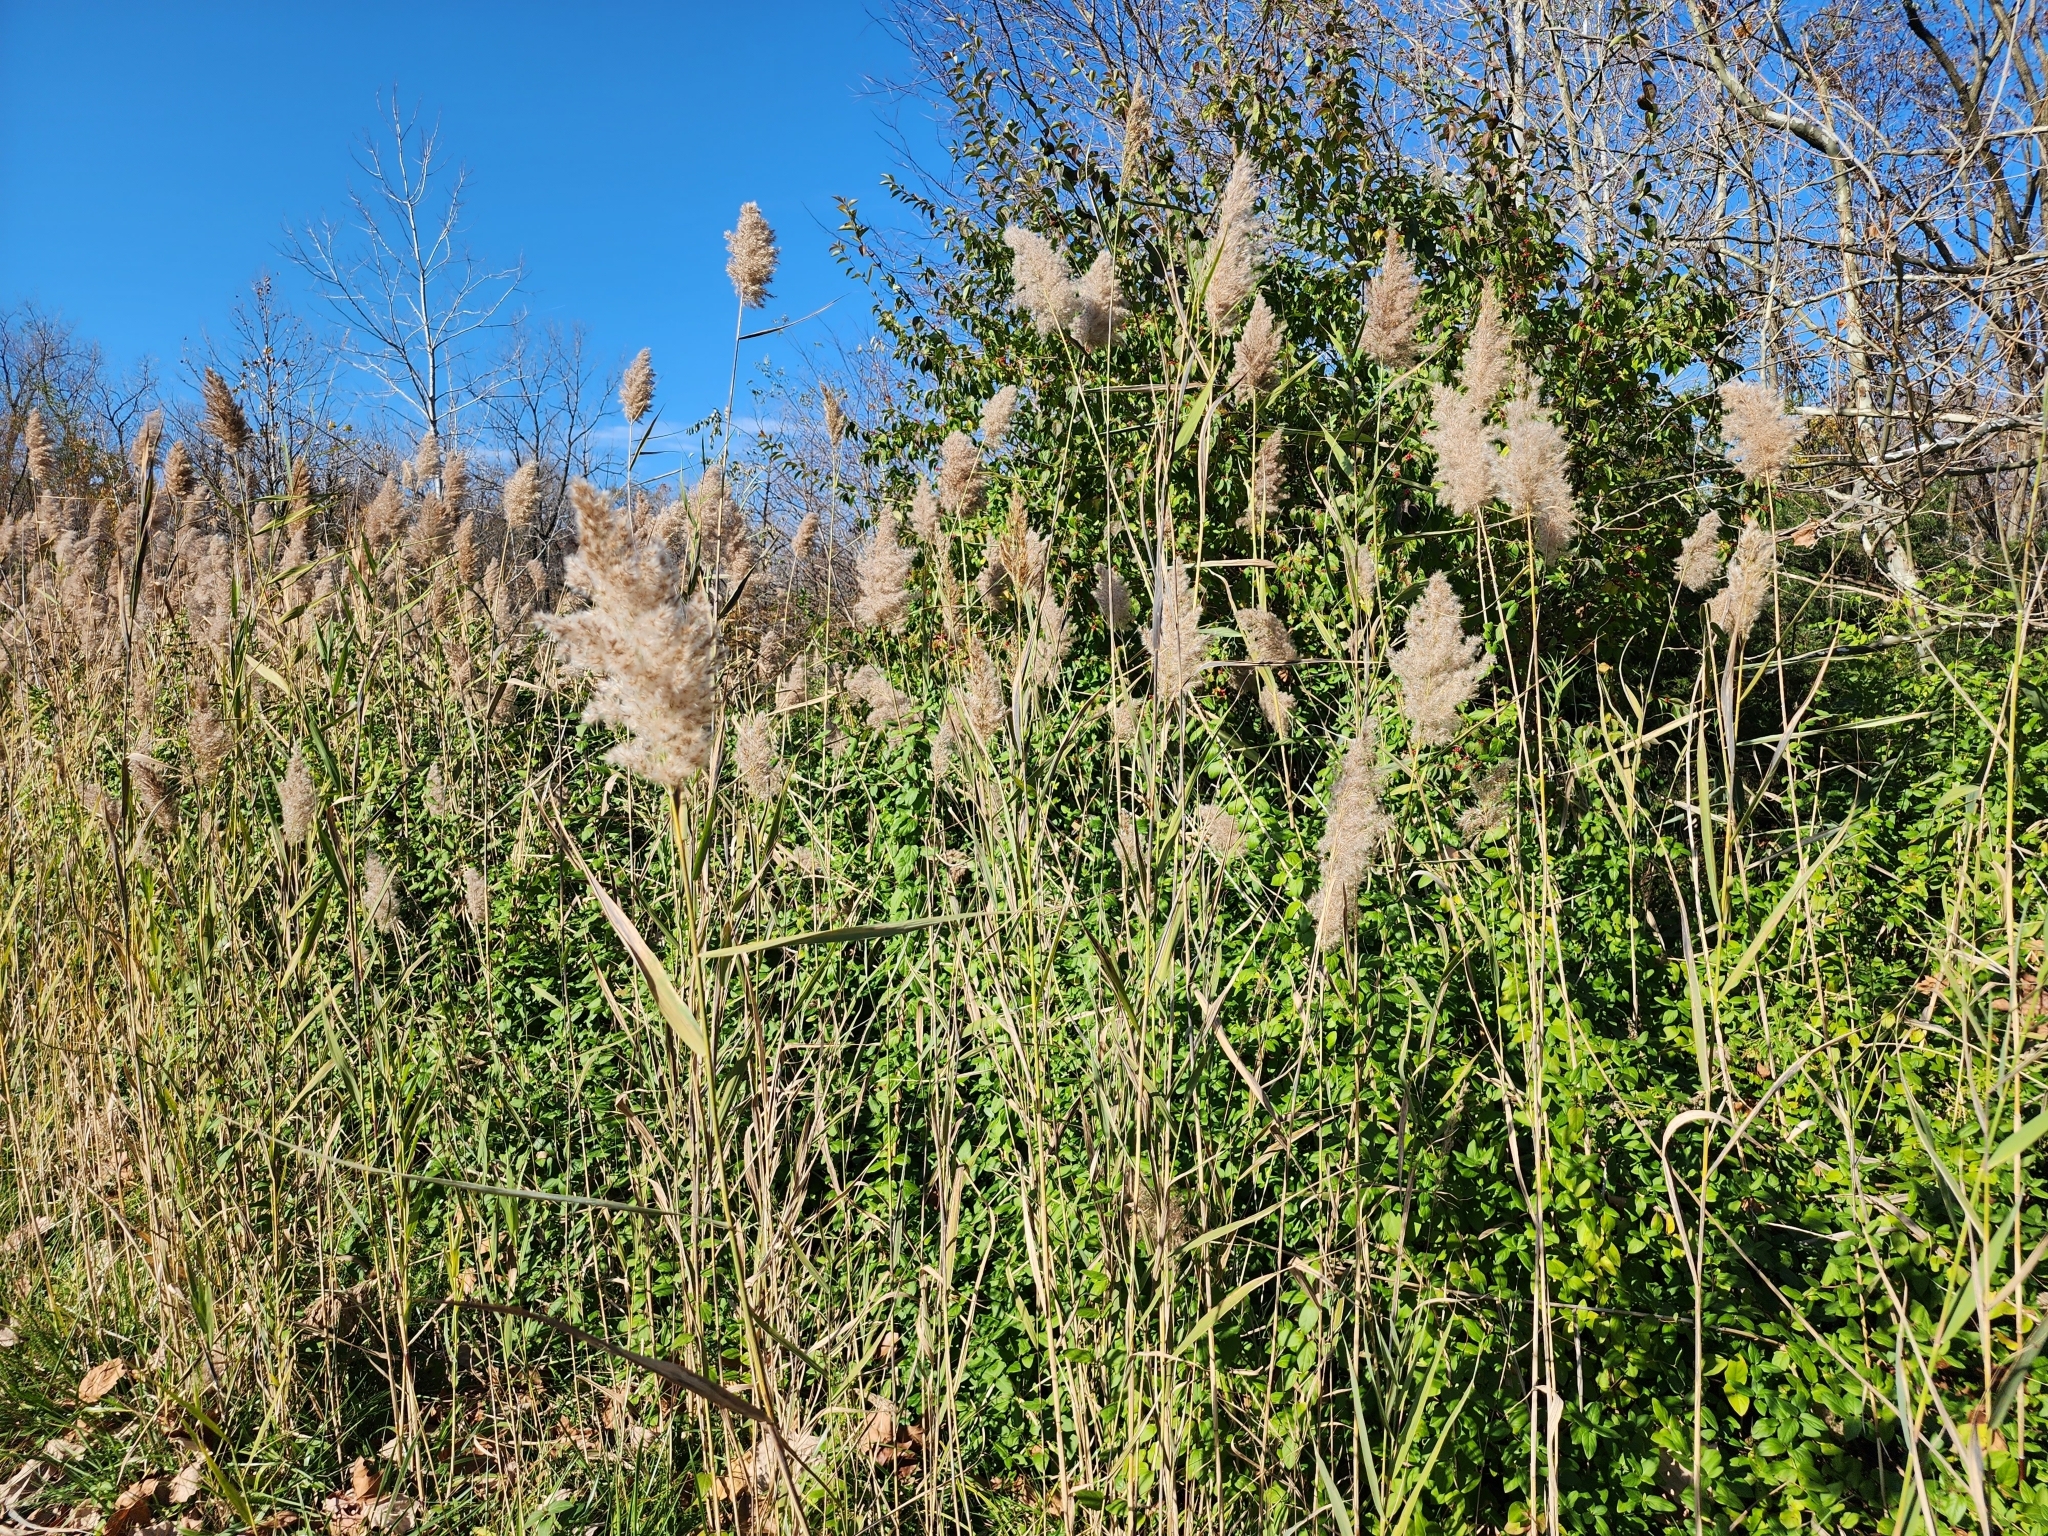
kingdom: Plantae
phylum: Tracheophyta
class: Liliopsida
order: Poales
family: Poaceae
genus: Phragmites
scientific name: Phragmites australis
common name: Common reed
